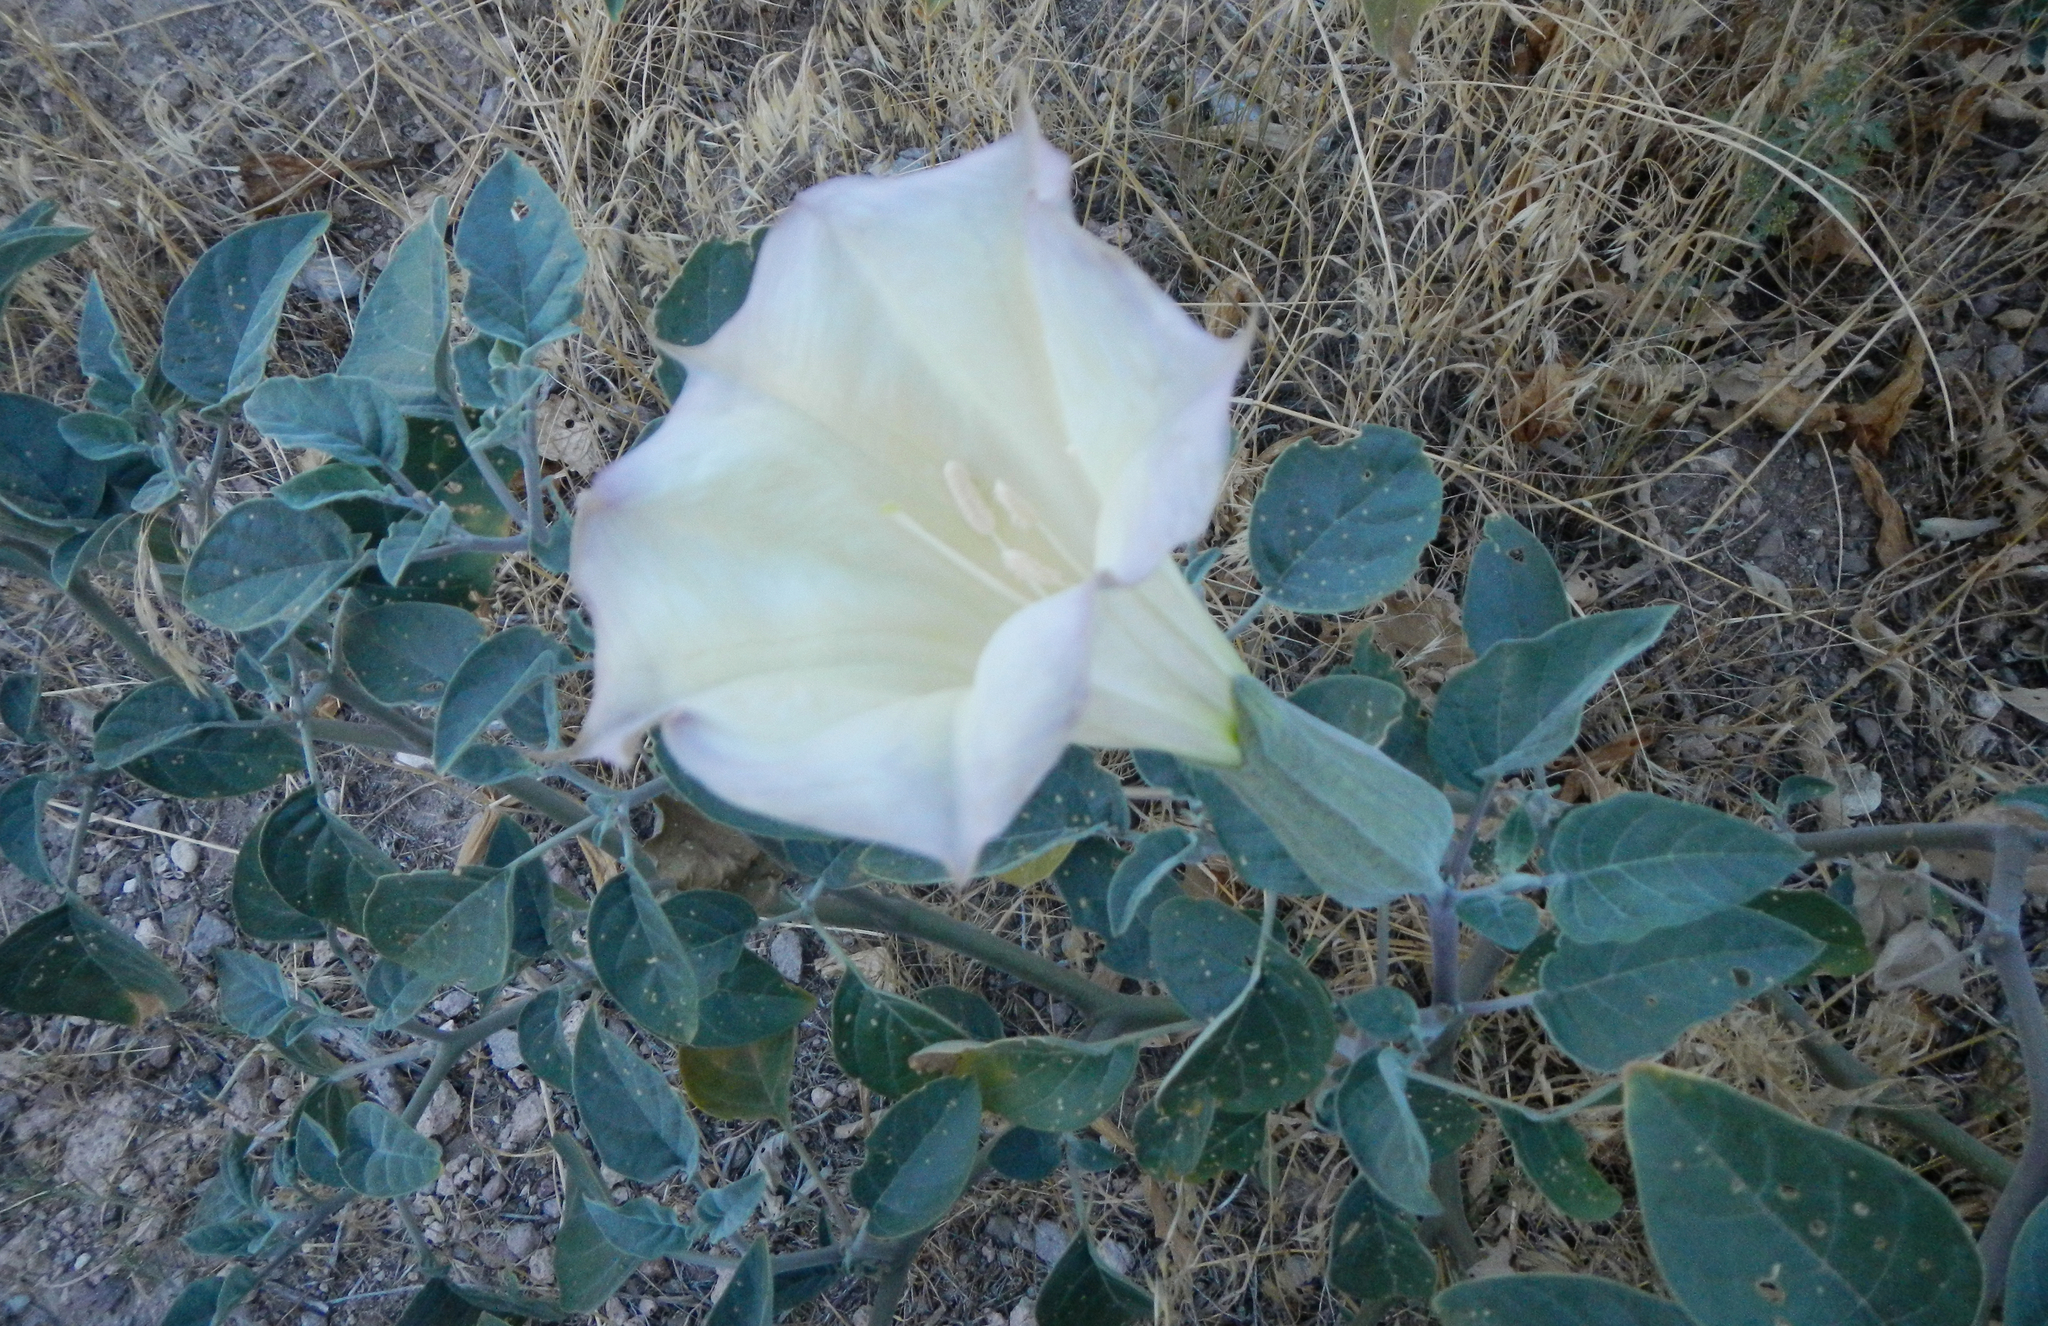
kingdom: Plantae
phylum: Tracheophyta
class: Magnoliopsida
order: Solanales
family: Solanaceae
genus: Datura
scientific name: Datura wrightii
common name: Sacred thorn-apple
